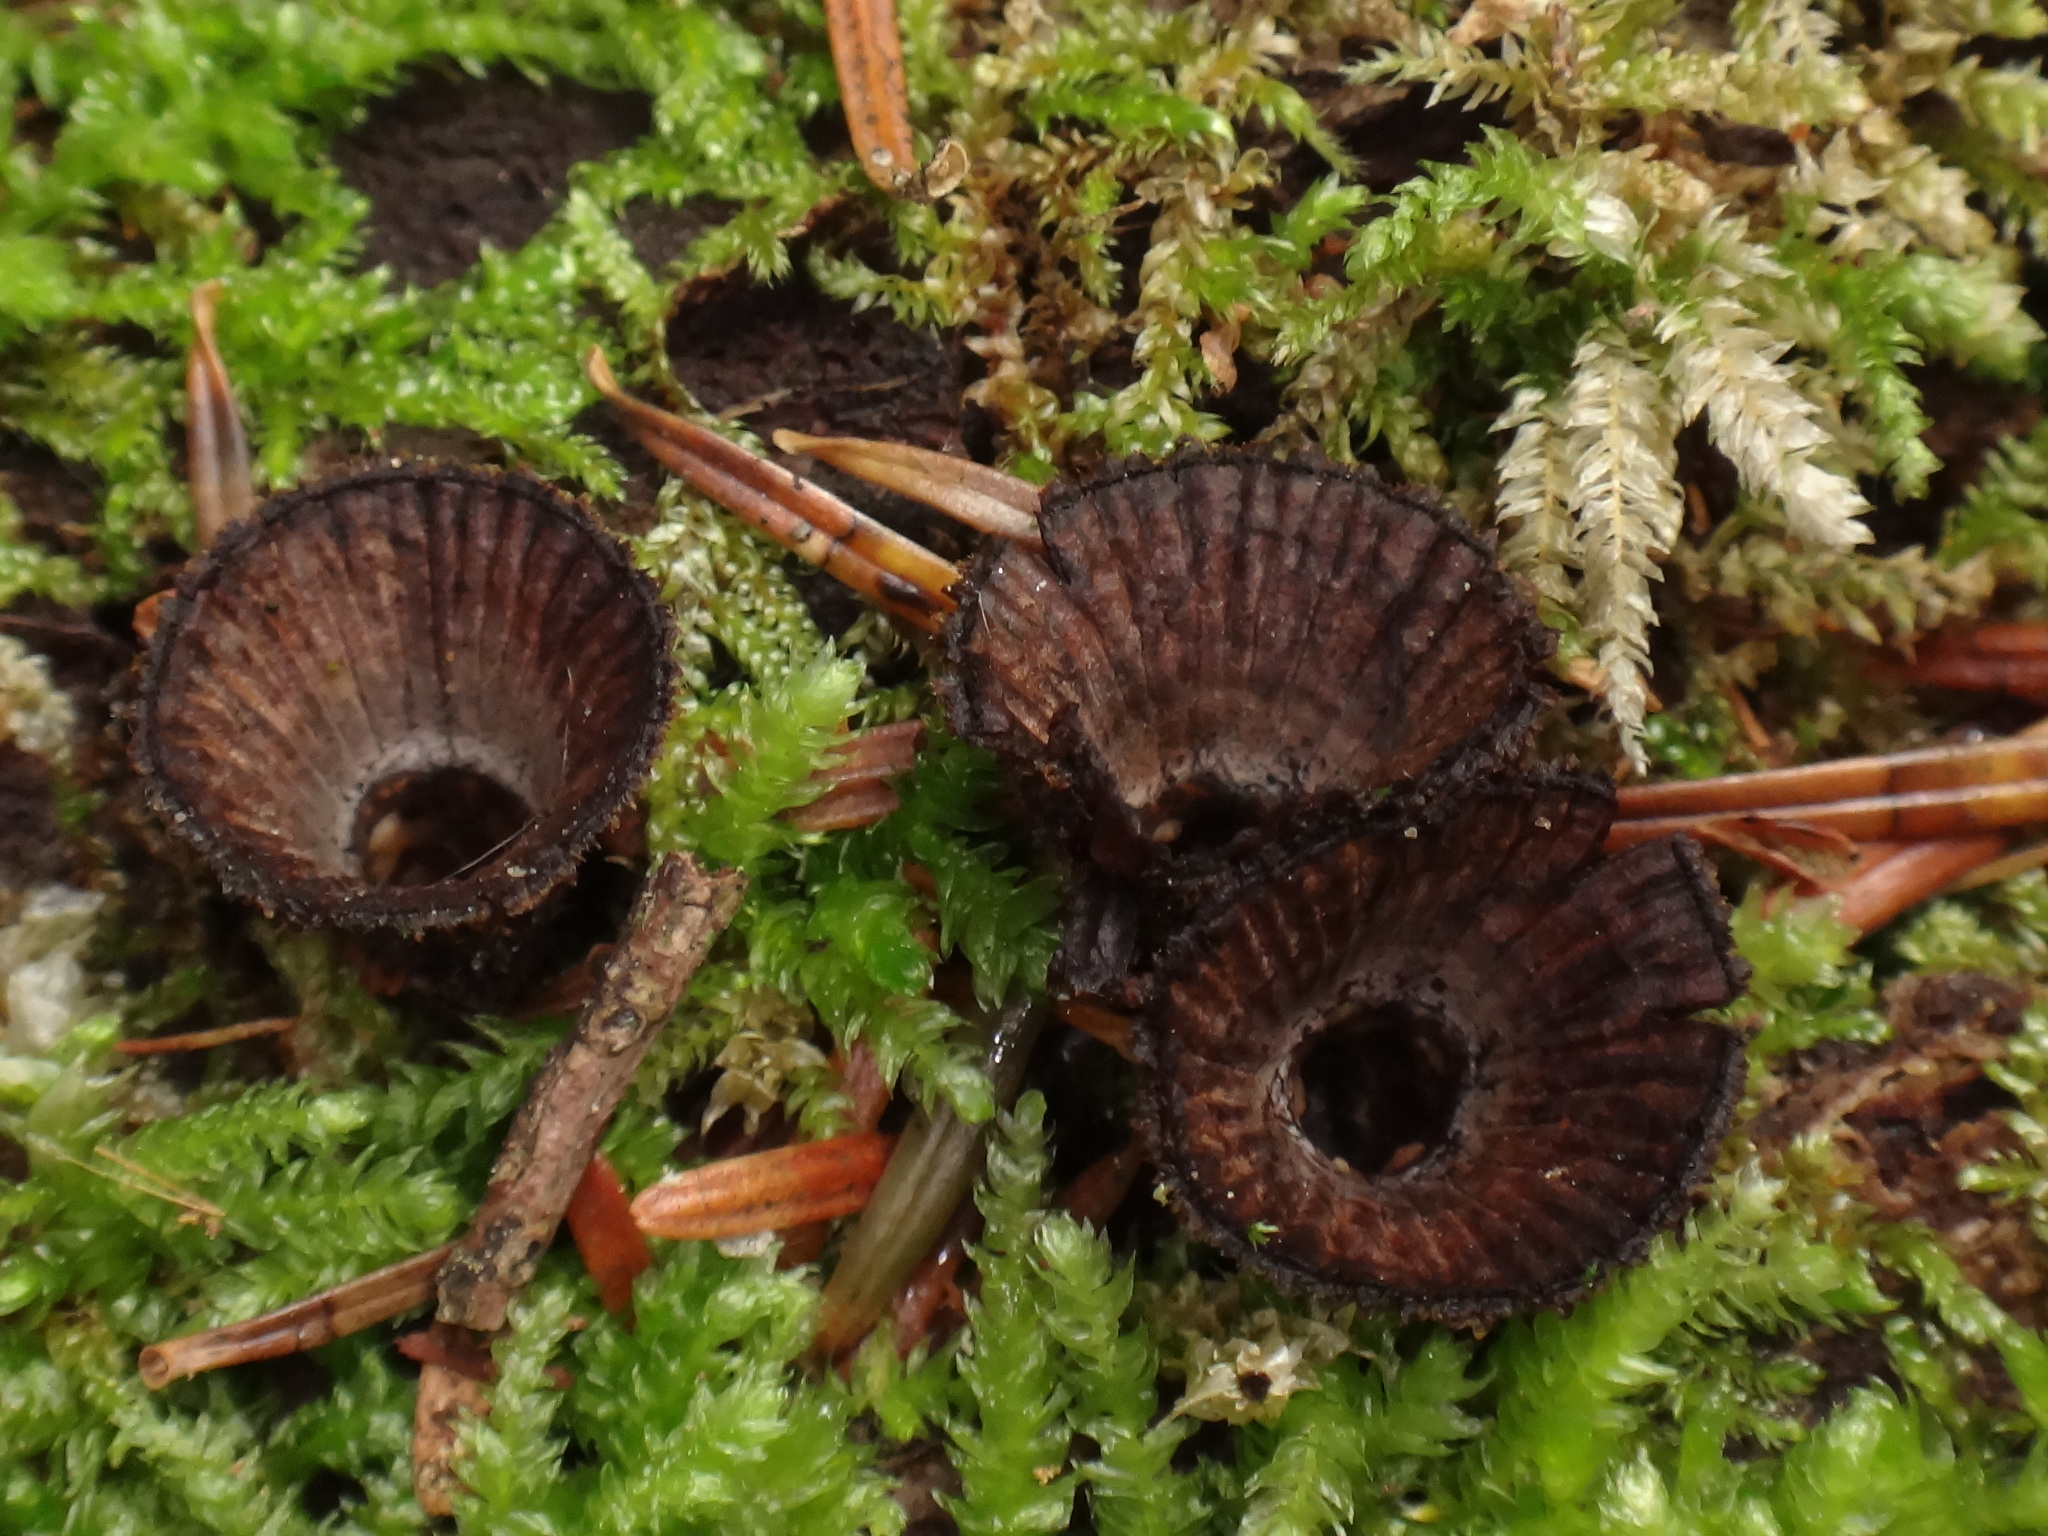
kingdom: Fungi
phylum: Basidiomycota
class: Agaricomycetes
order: Agaricales
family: Agaricaceae
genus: Cyathus
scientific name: Cyathus striatus
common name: Fluted bird's nest
